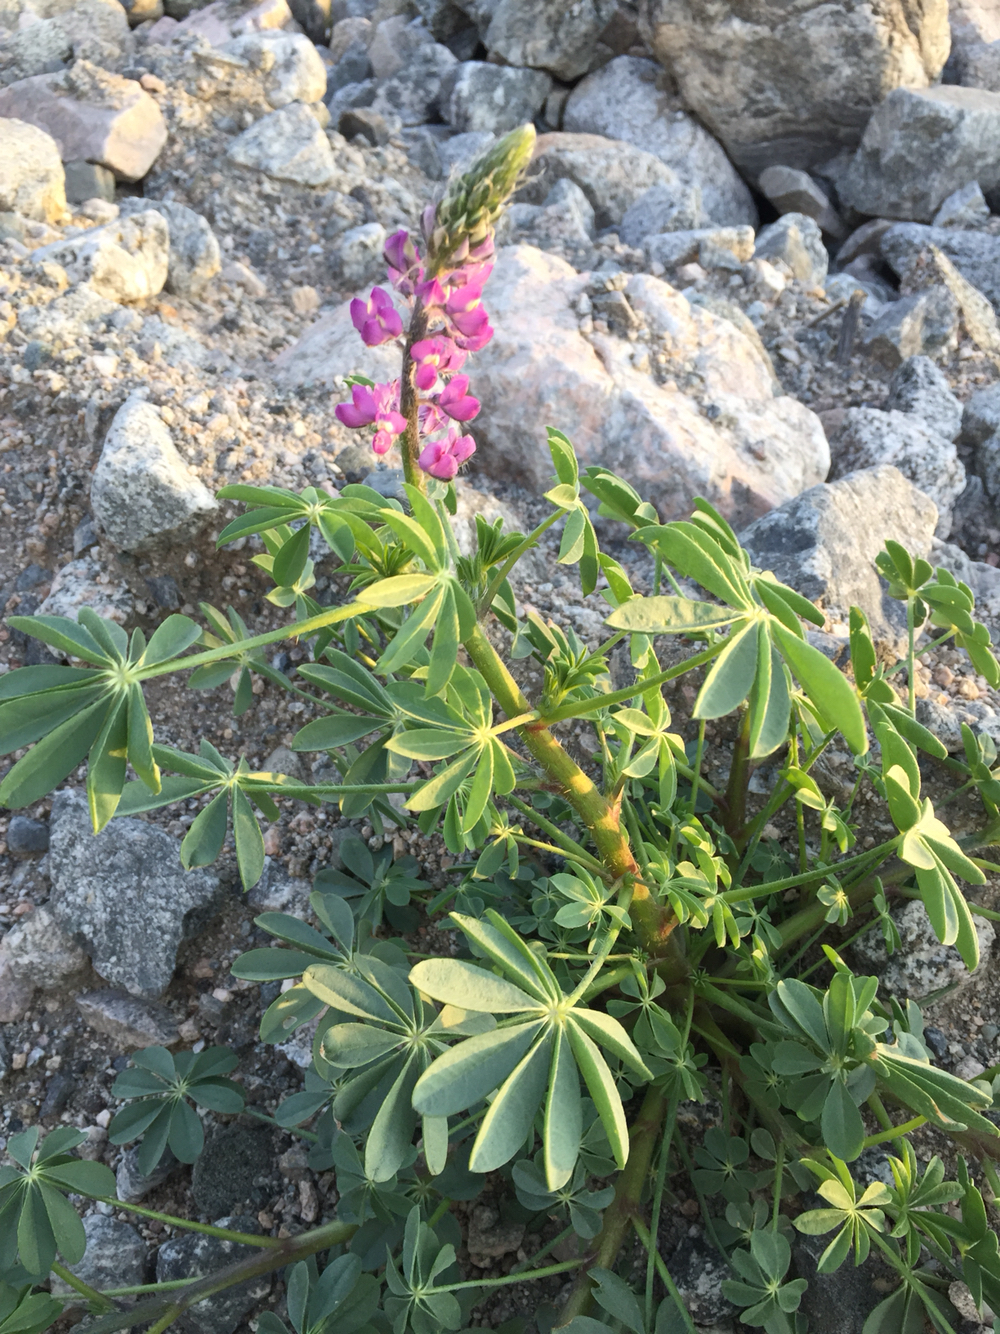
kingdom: Plantae
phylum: Tracheophyta
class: Magnoliopsida
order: Fabales
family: Fabaceae
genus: Lupinus
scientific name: Lupinus arizonicus
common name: Arizona lupine
